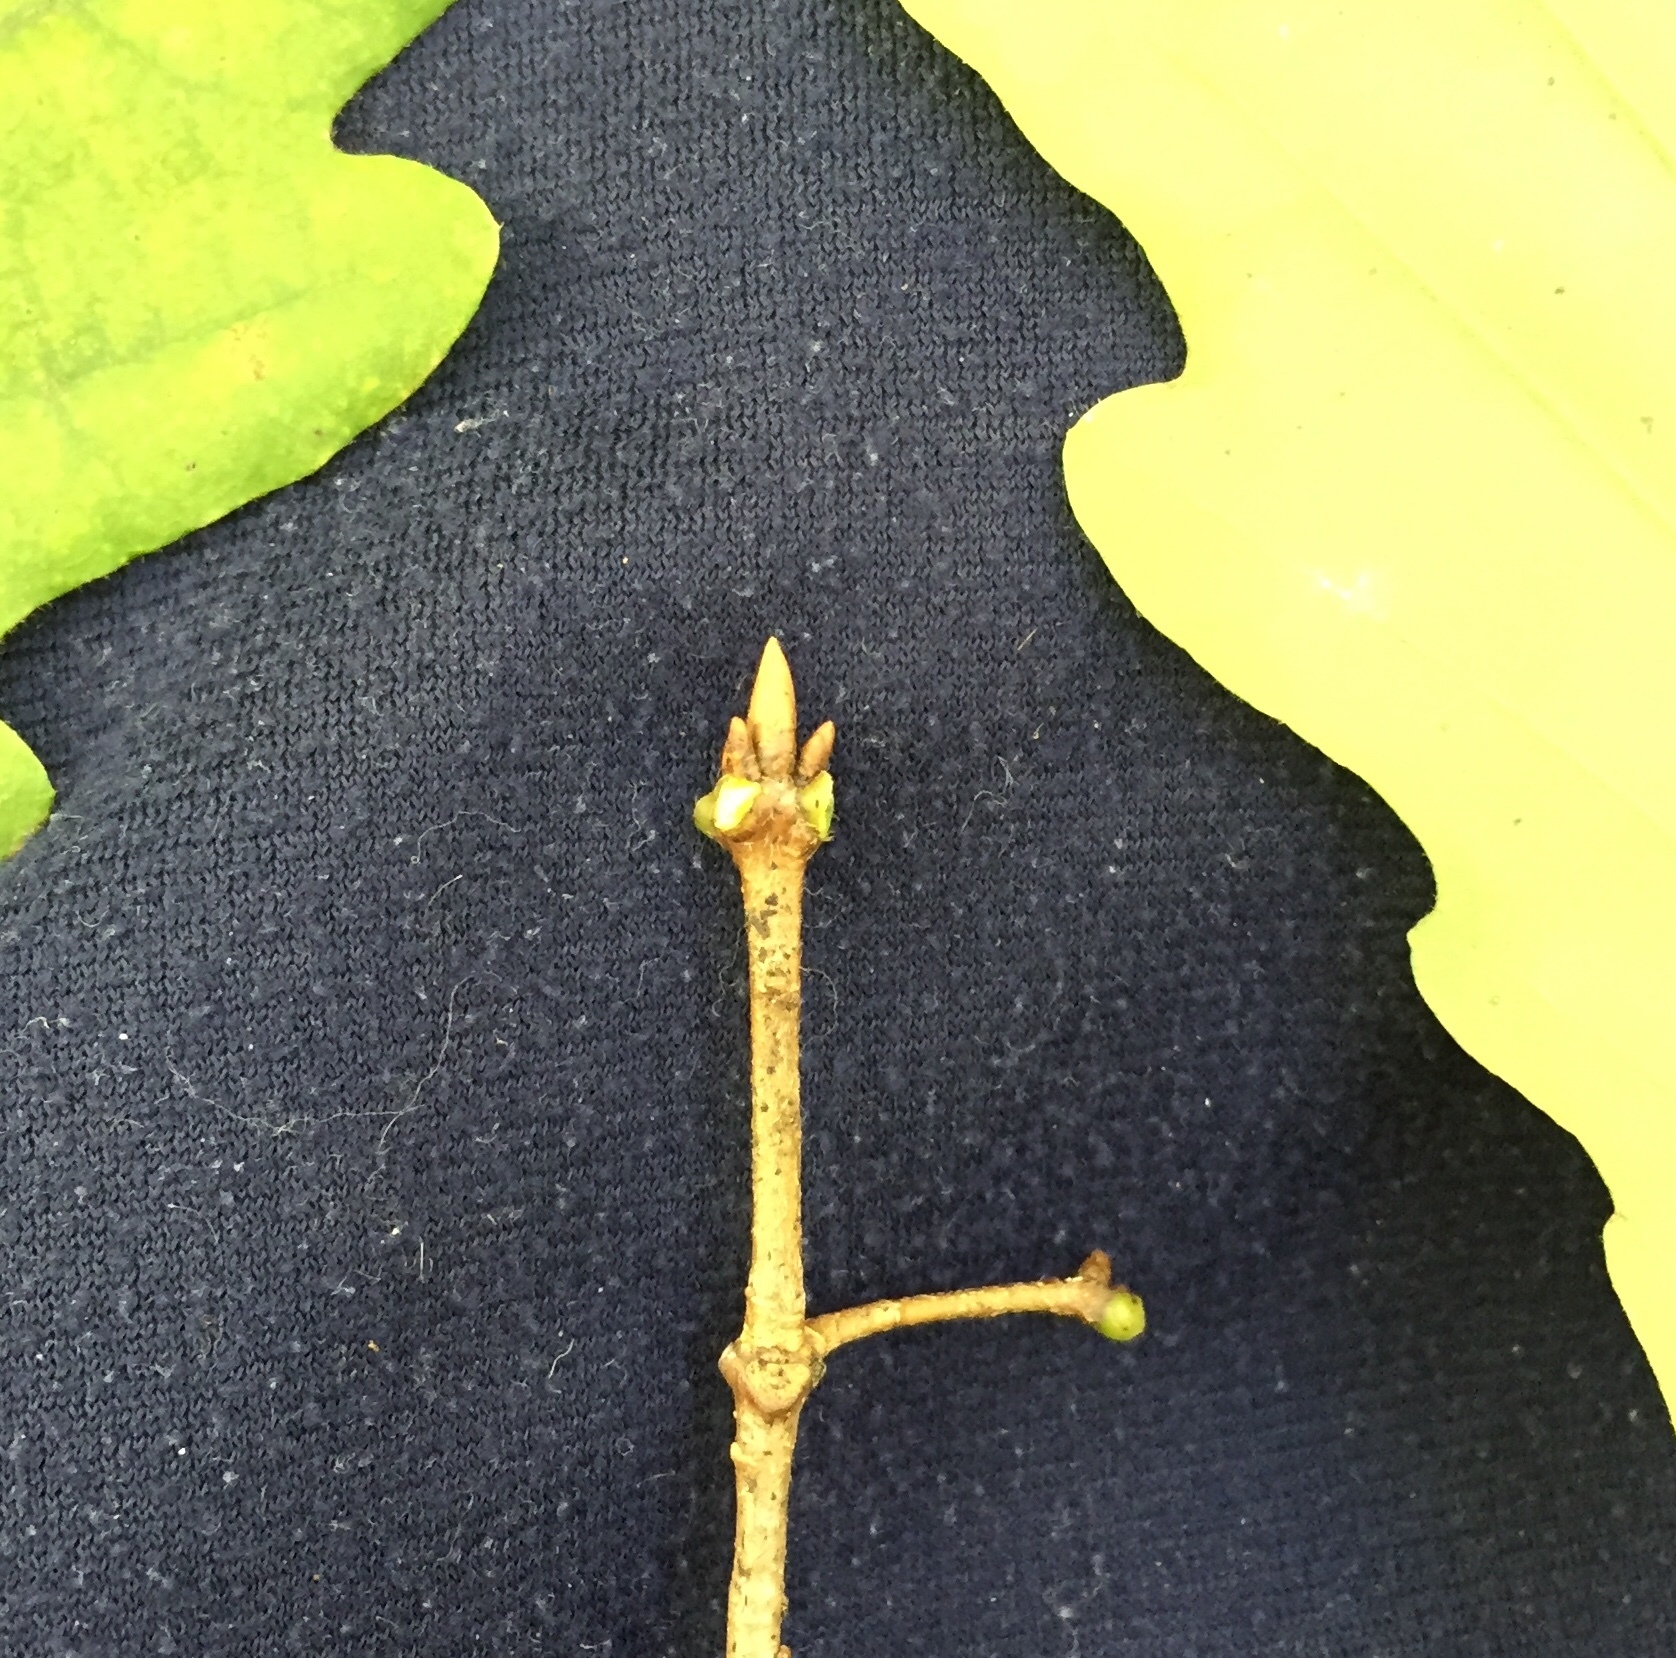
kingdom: Plantae
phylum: Tracheophyta
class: Magnoliopsida
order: Fagales
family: Fagaceae
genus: Quercus
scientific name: Quercus montana
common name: Chestnut oak
